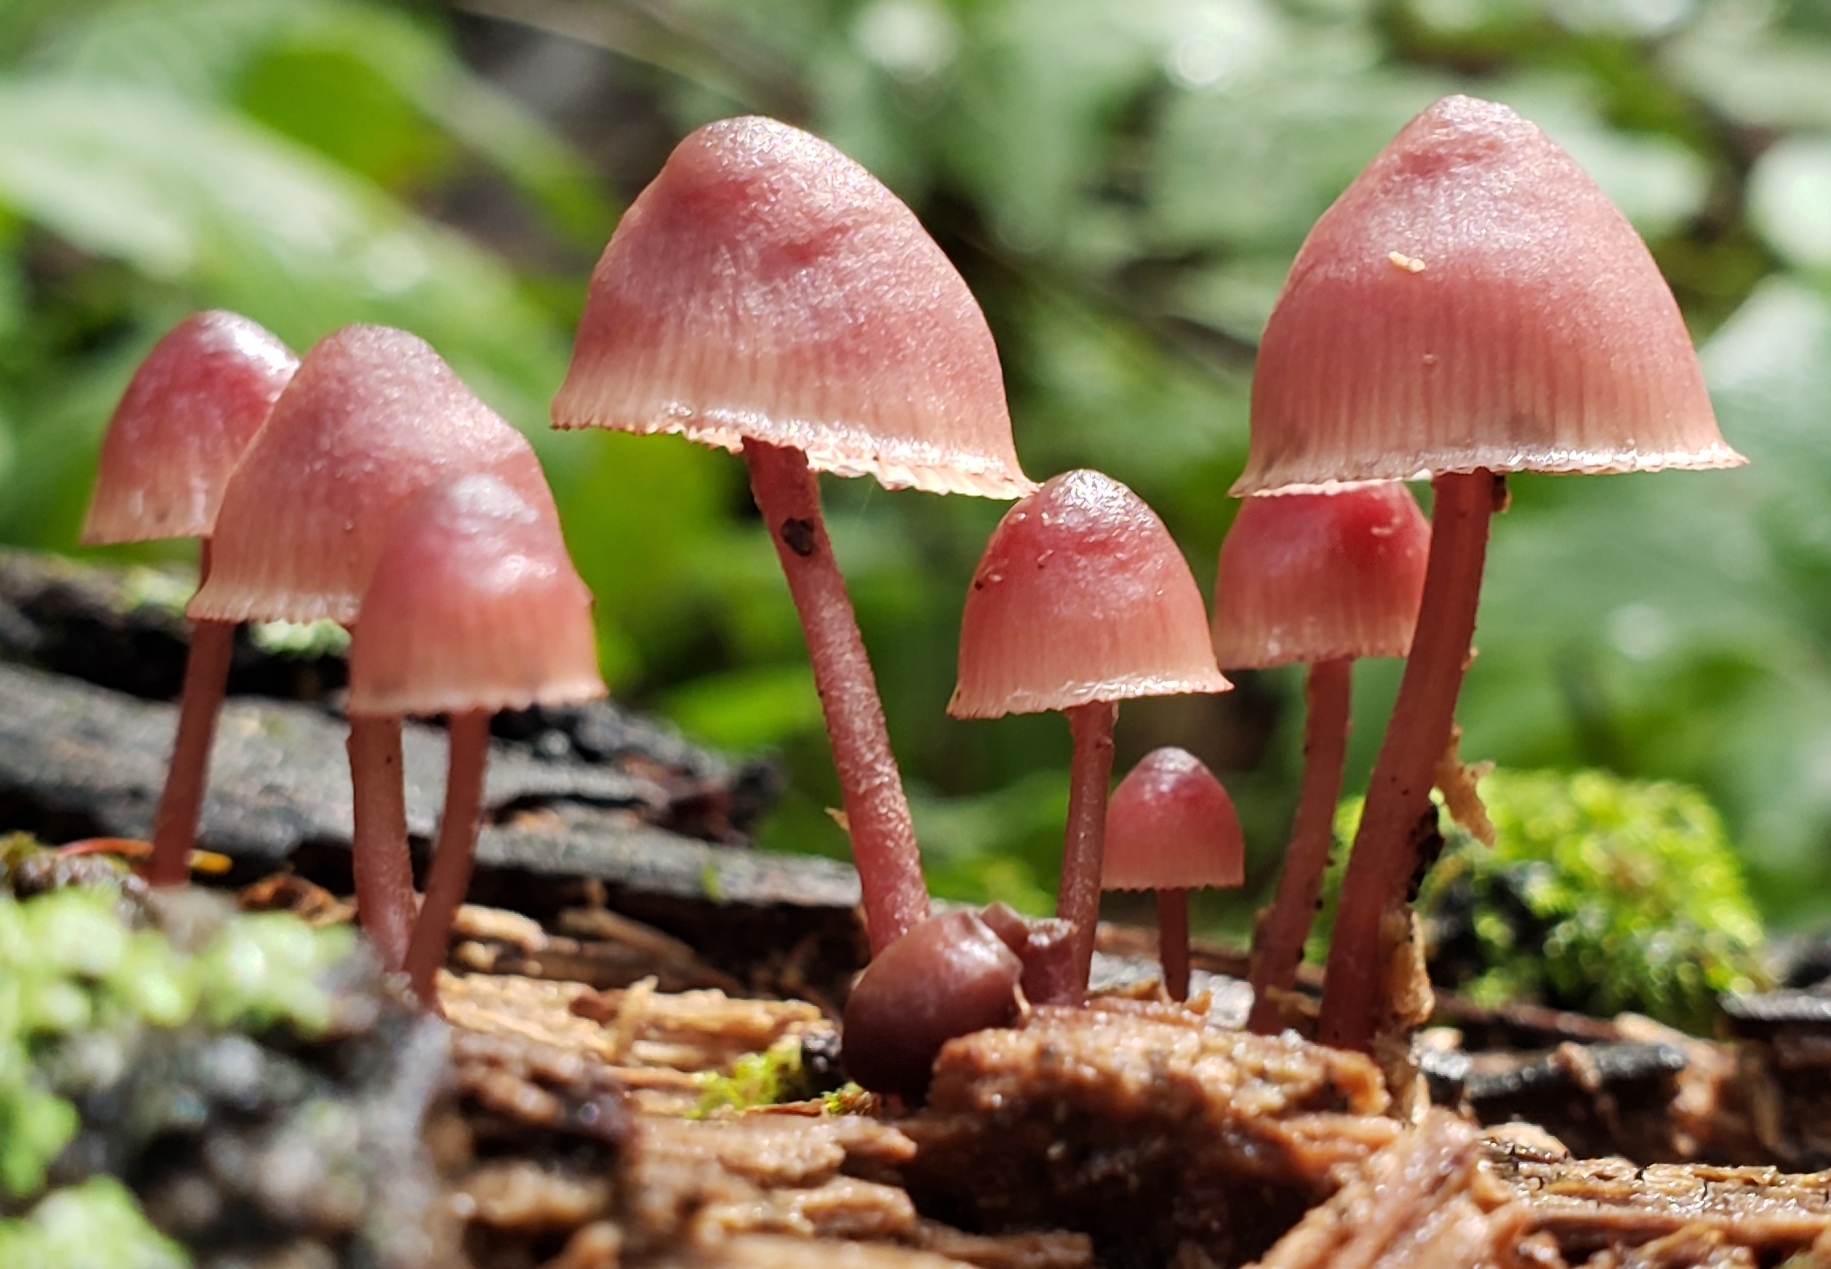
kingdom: Fungi
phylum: Basidiomycota
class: Agaricomycetes
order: Agaricales
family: Mycenaceae
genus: Mycena
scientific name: Mycena haematopus
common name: Burgundydrop bonnet
